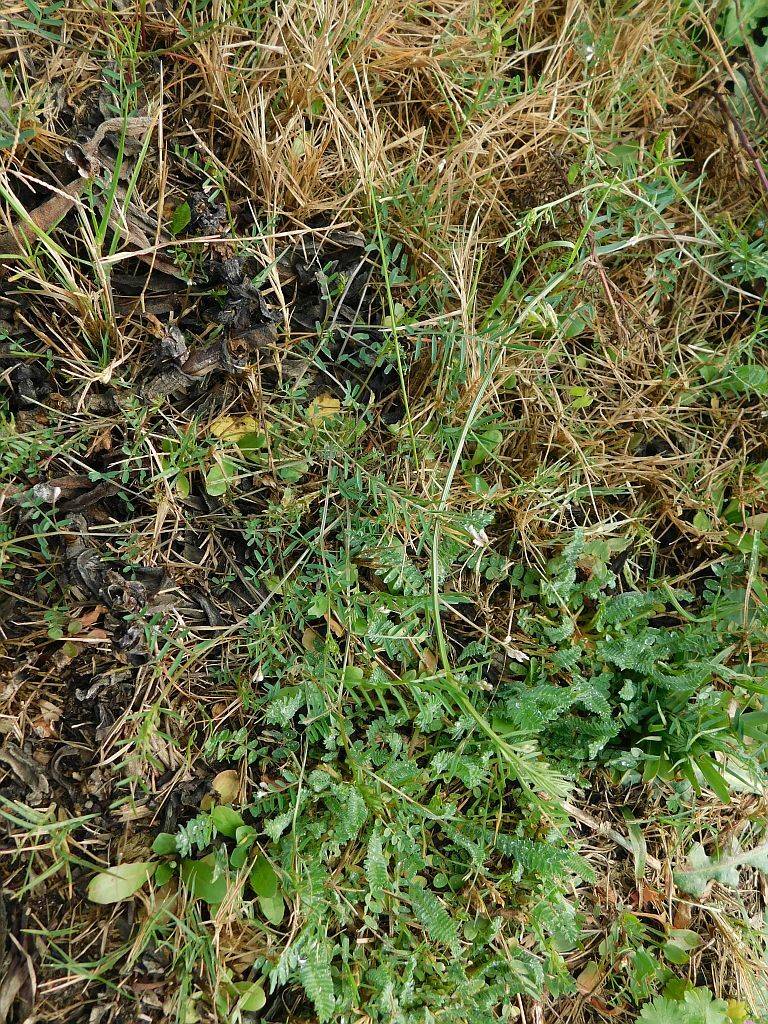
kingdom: Plantae
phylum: Tracheophyta
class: Magnoliopsida
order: Fabales
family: Fabaceae
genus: Vicia
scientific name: Vicia hirsuta
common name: Tiny vetch
